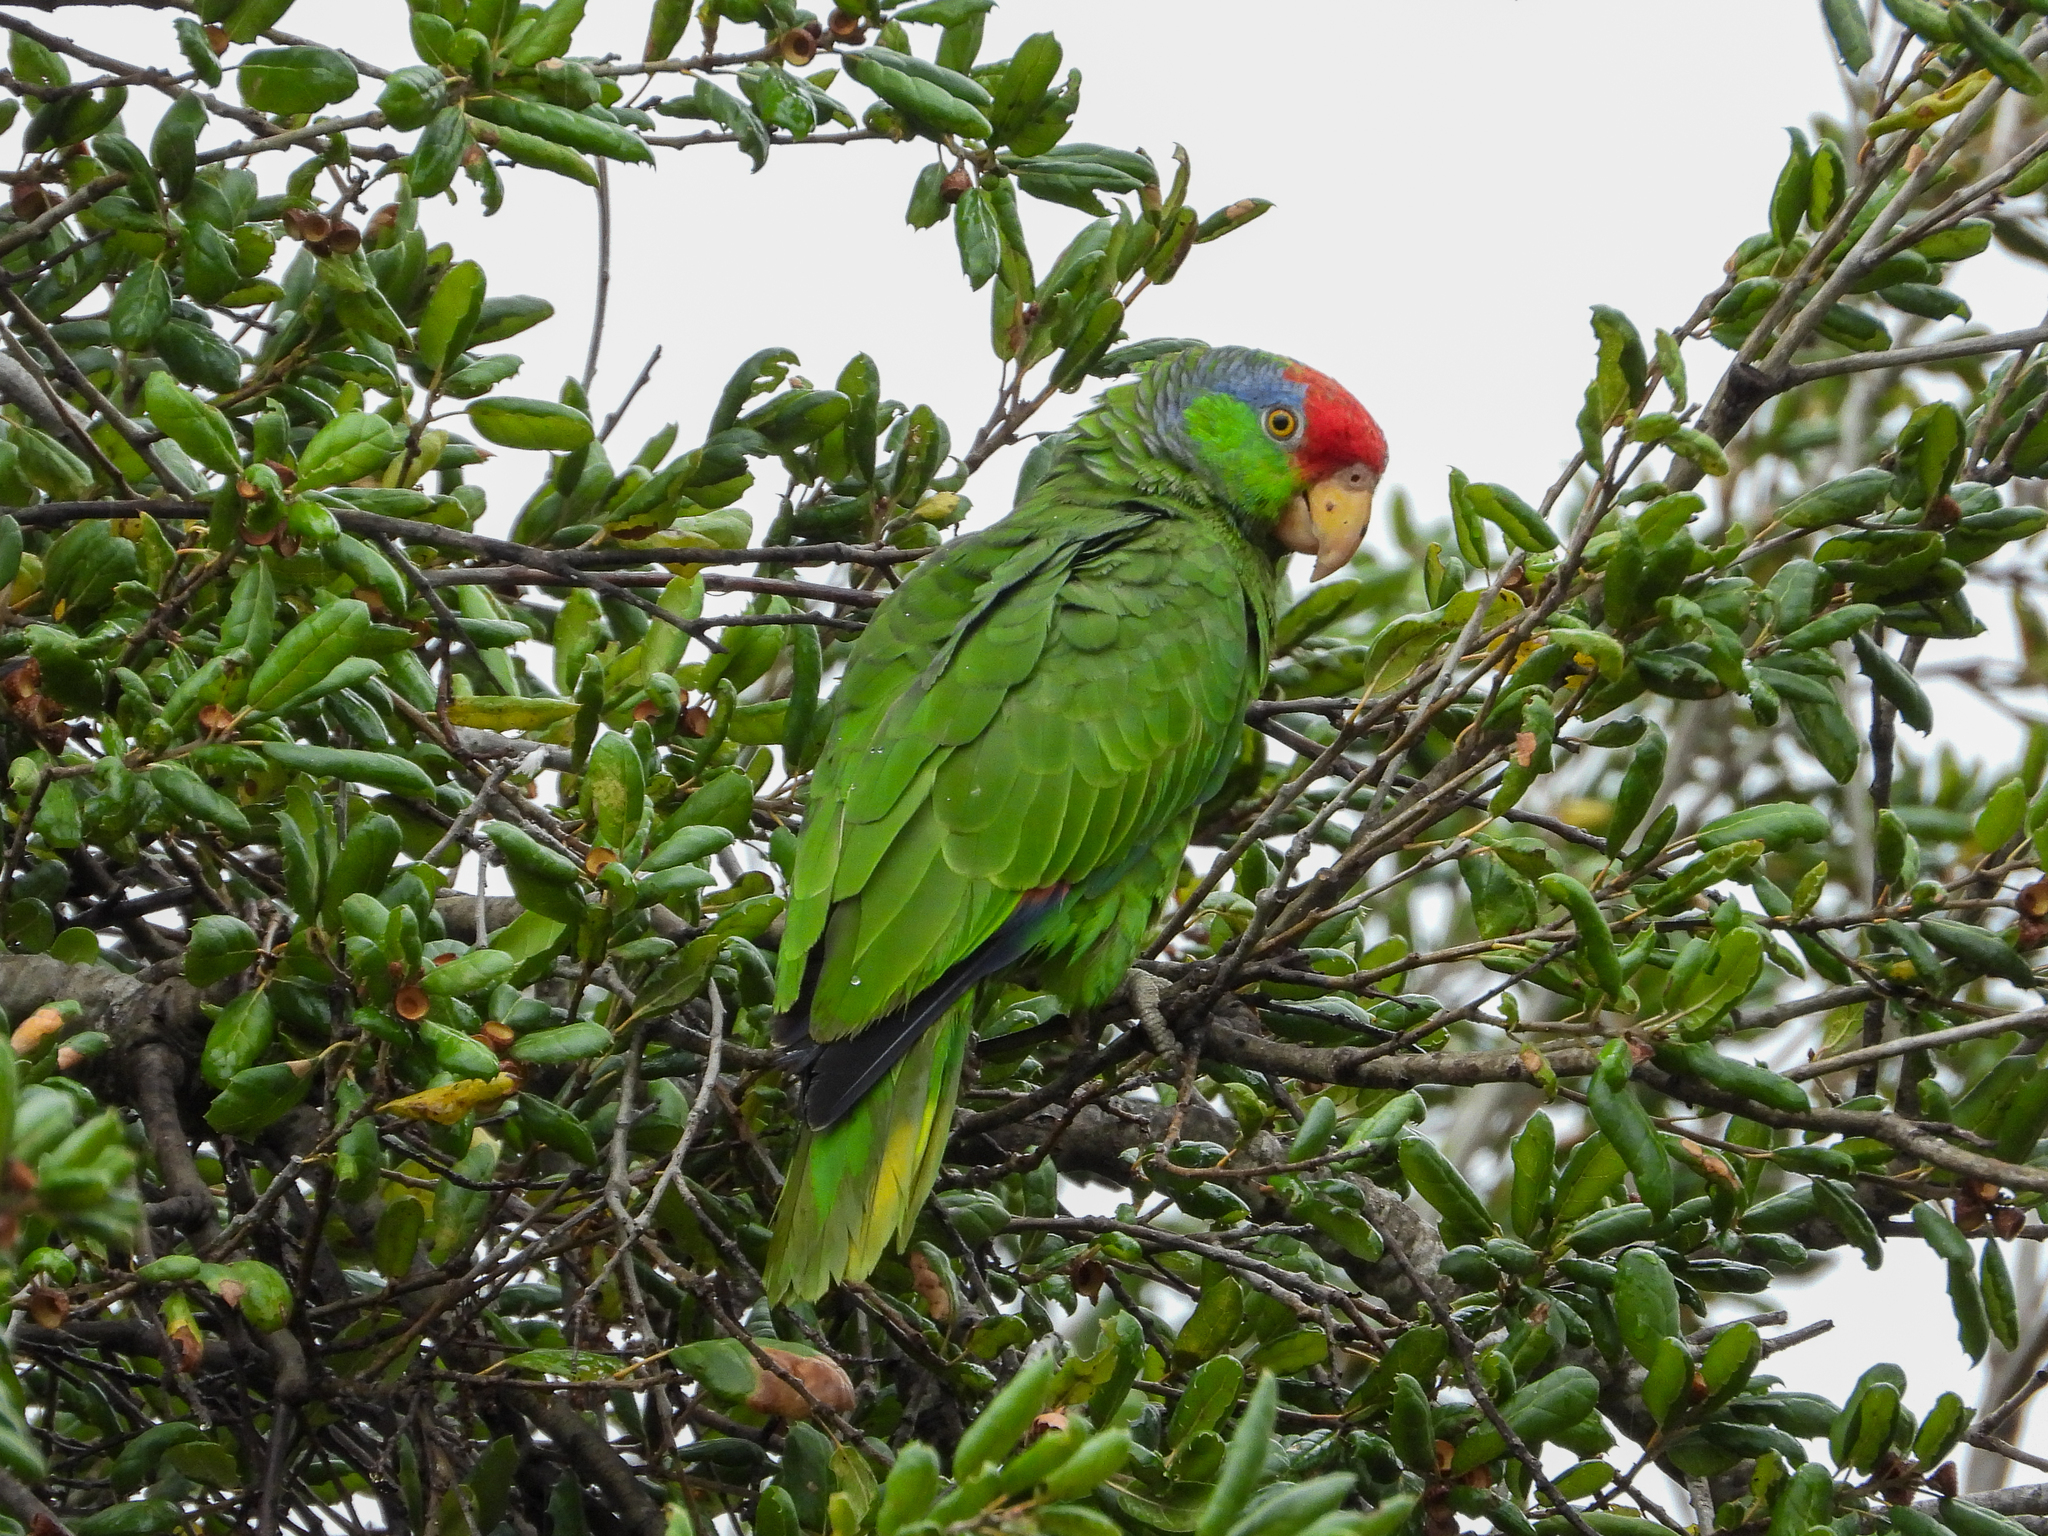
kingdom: Animalia
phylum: Chordata
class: Aves
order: Psittaciformes
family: Psittacidae
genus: Amazona
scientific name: Amazona viridigenalis
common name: Red-crowned amazon
